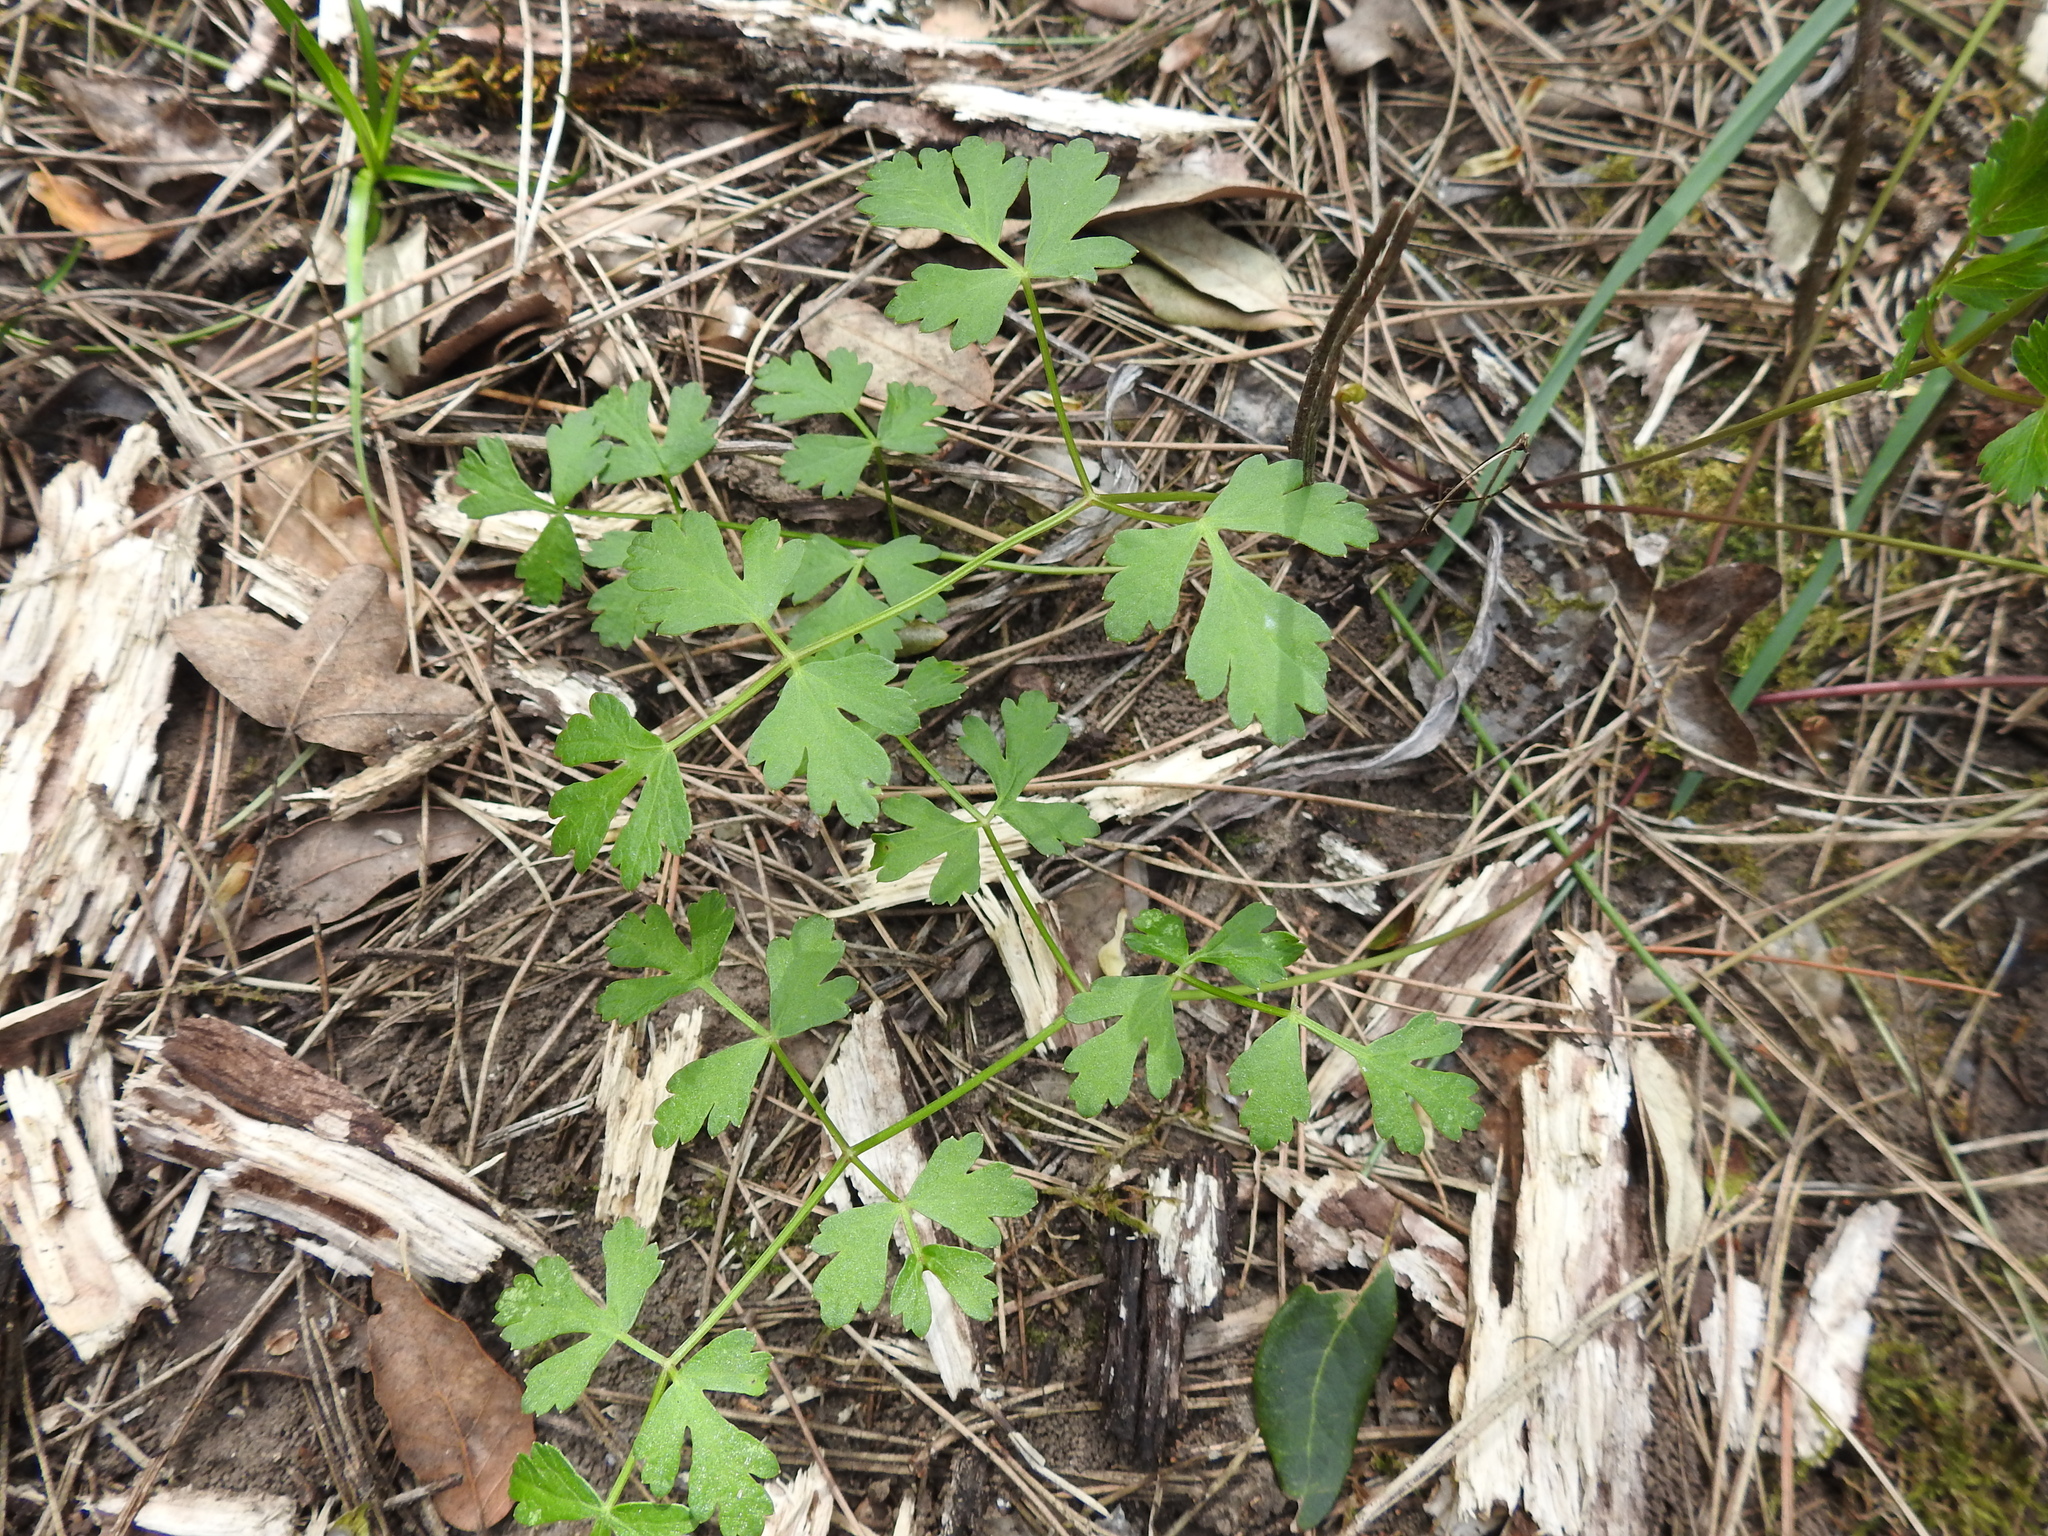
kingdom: Plantae
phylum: Tracheophyta
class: Magnoliopsida
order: Apiales
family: Apiaceae
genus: Pimpinella
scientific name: Pimpinella tragium
